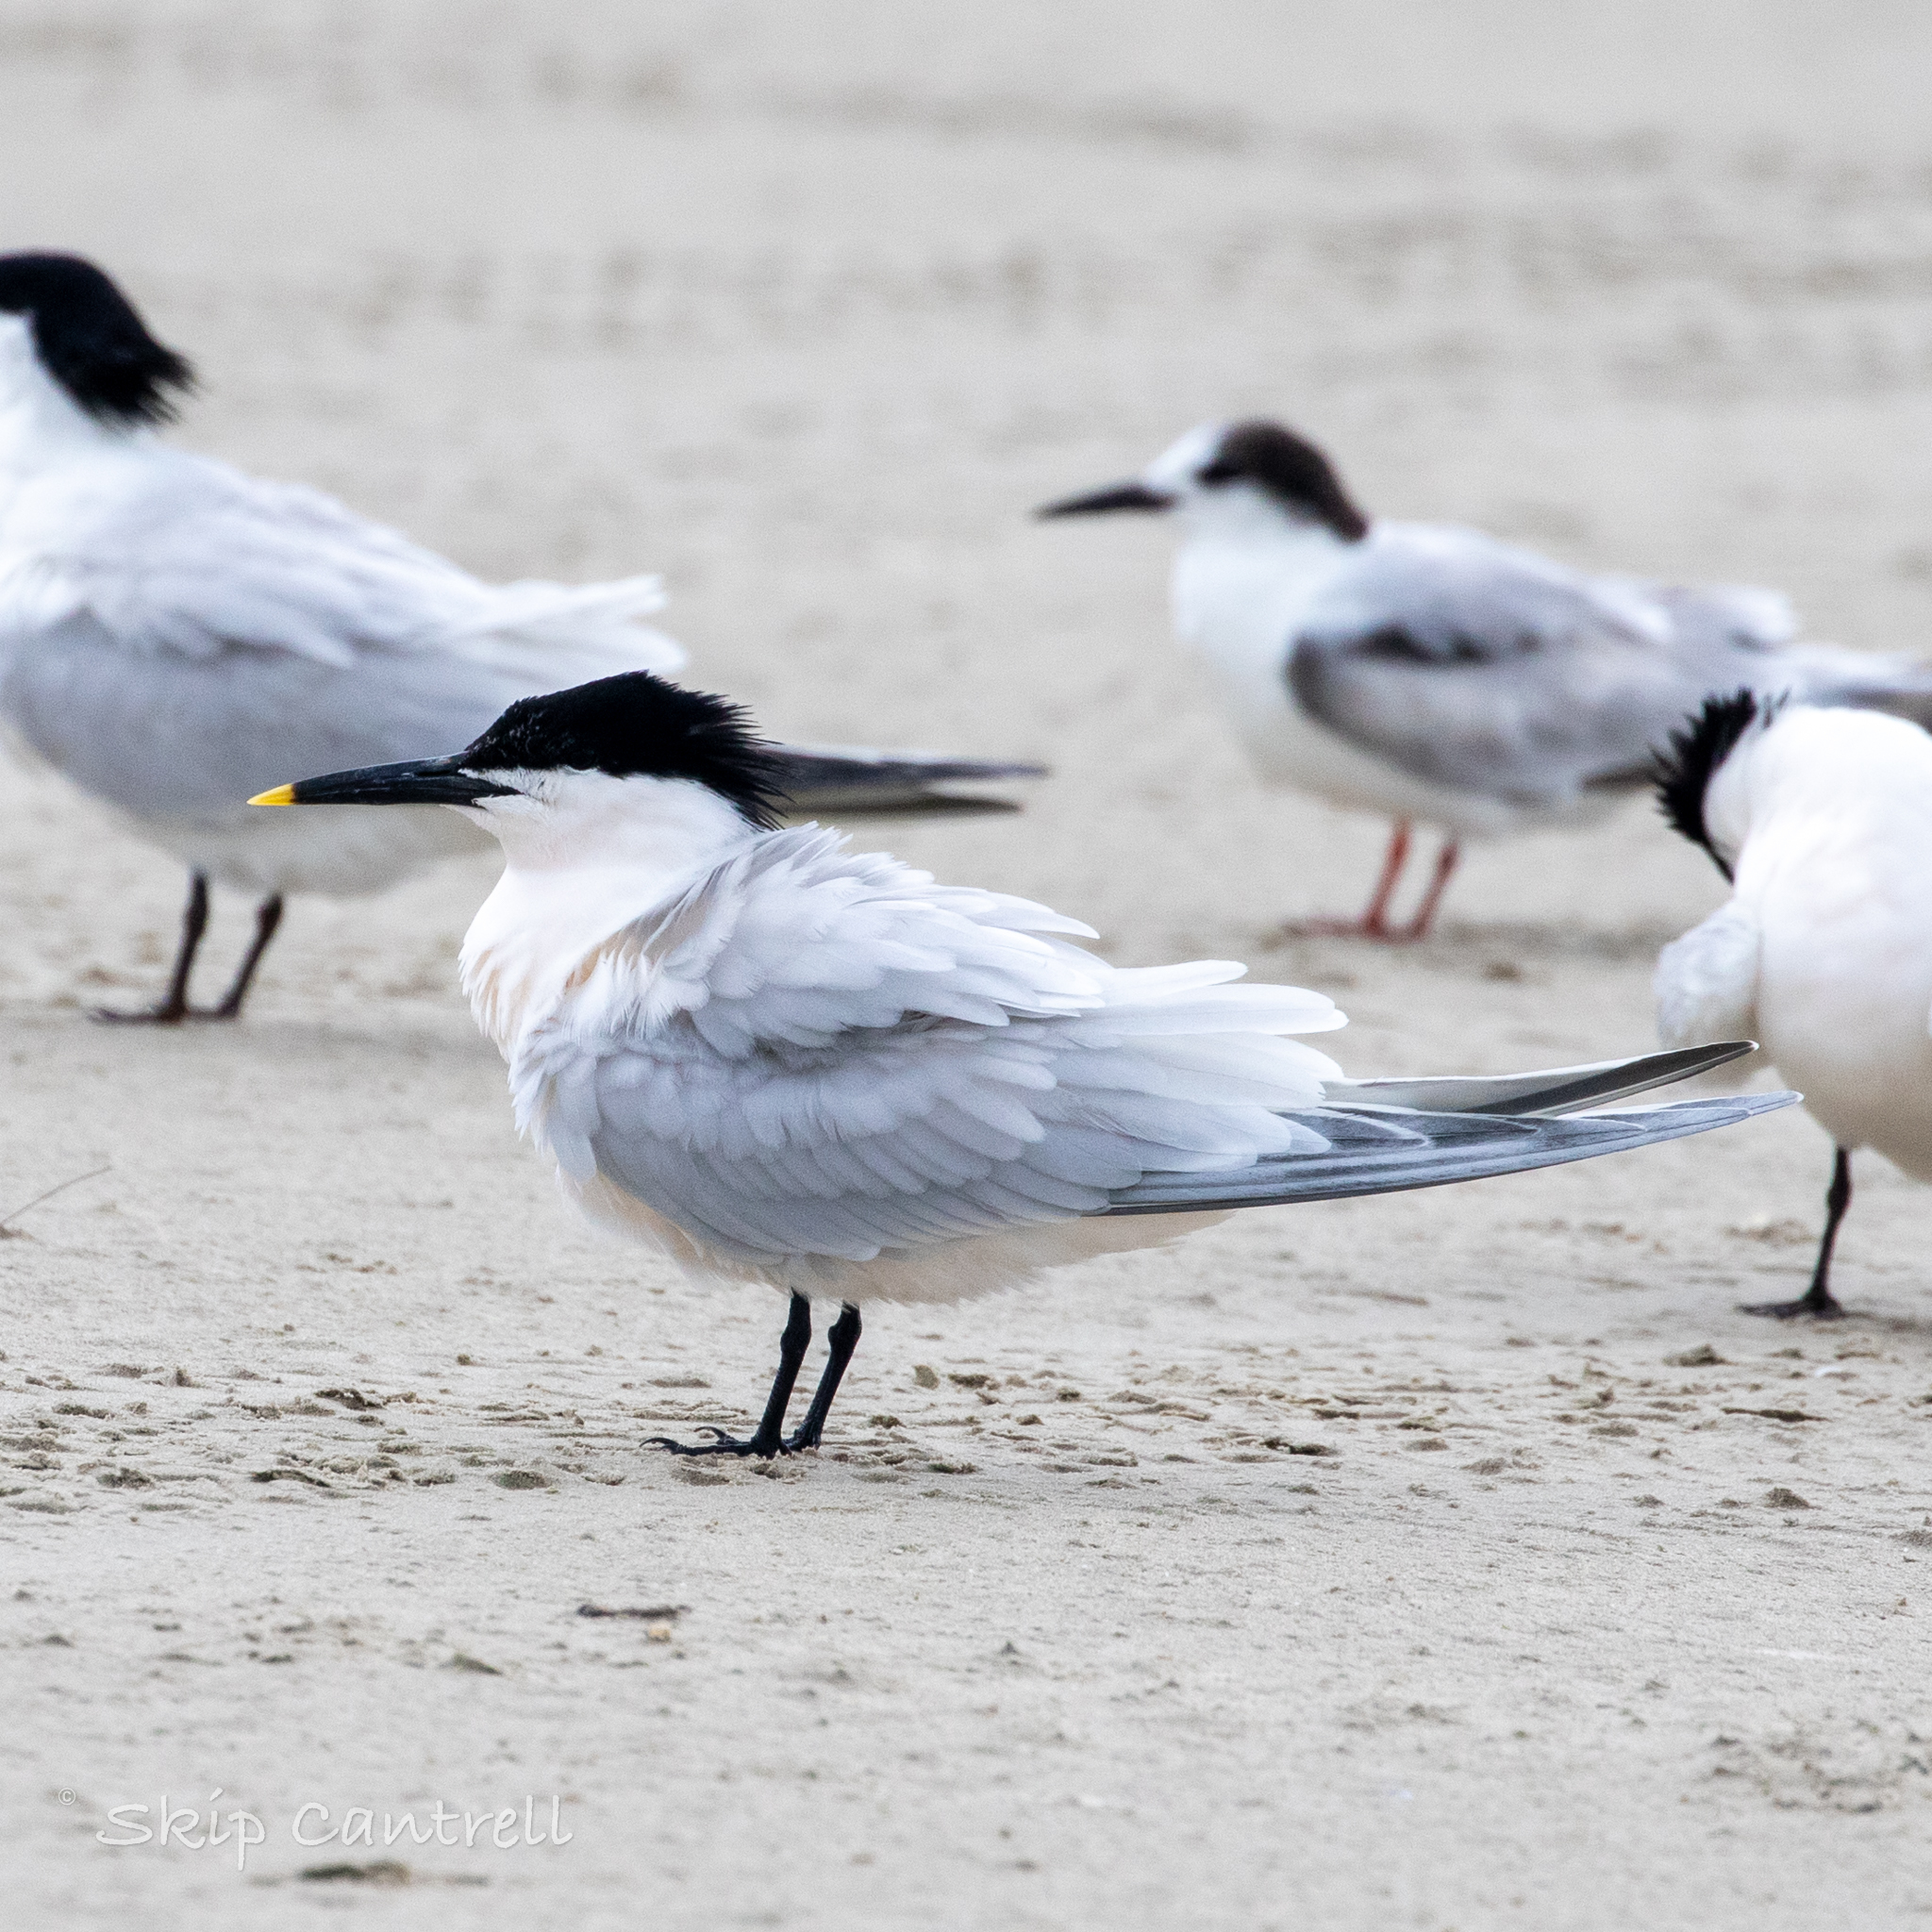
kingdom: Animalia
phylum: Chordata
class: Aves
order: Charadriiformes
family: Laridae
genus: Thalasseus
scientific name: Thalasseus sandvicensis
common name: Sandwich tern
